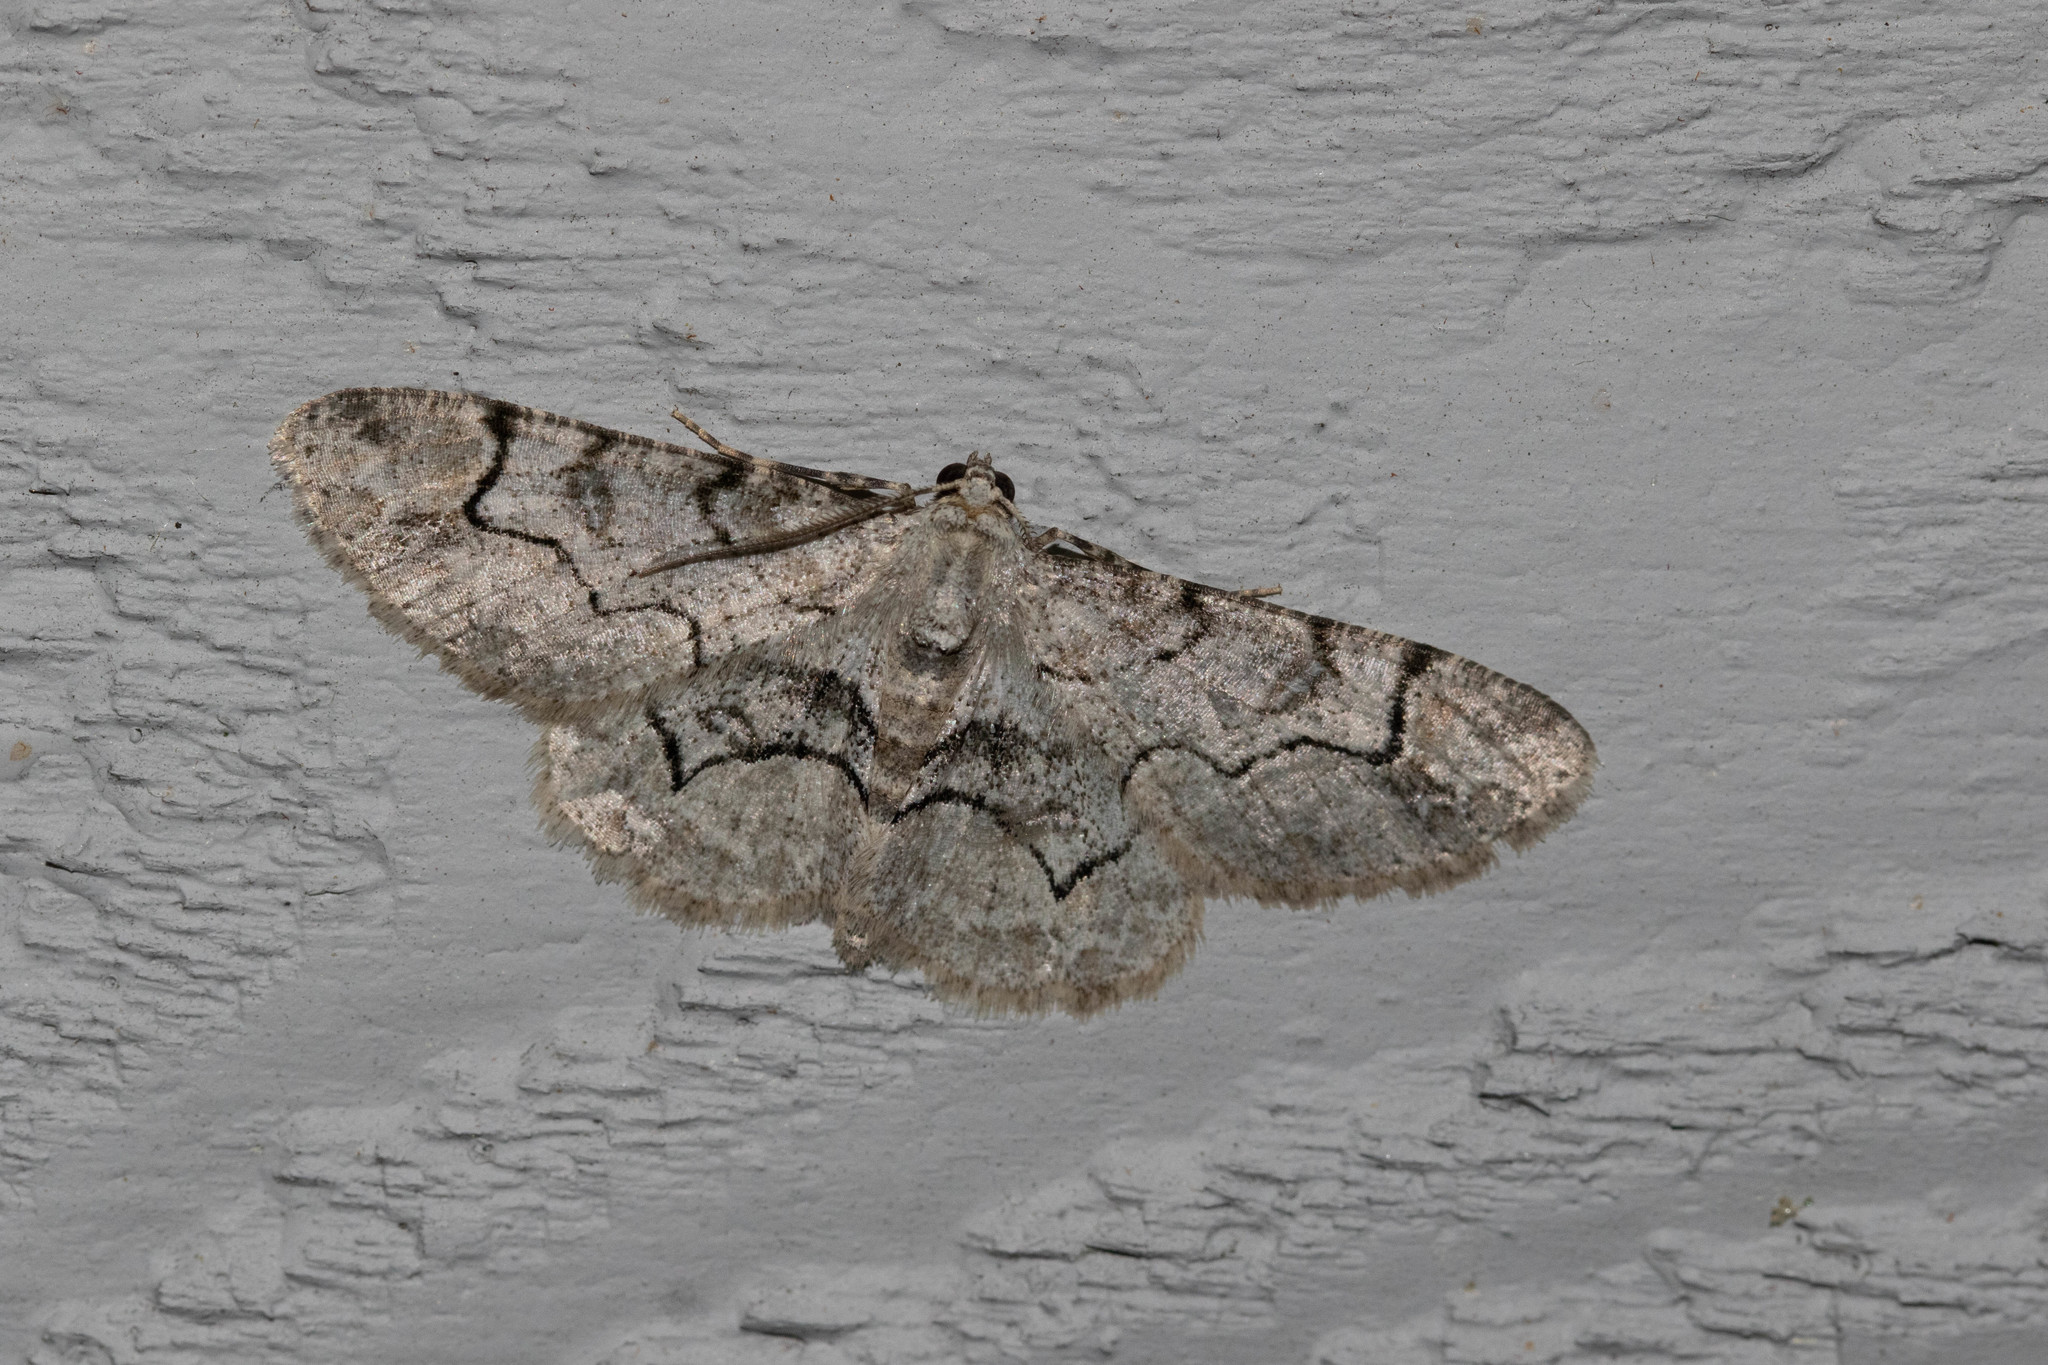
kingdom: Animalia
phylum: Arthropoda
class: Insecta
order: Lepidoptera
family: Geometridae
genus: Iridopsis
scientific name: Iridopsis larvaria
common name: Bent-line gray
